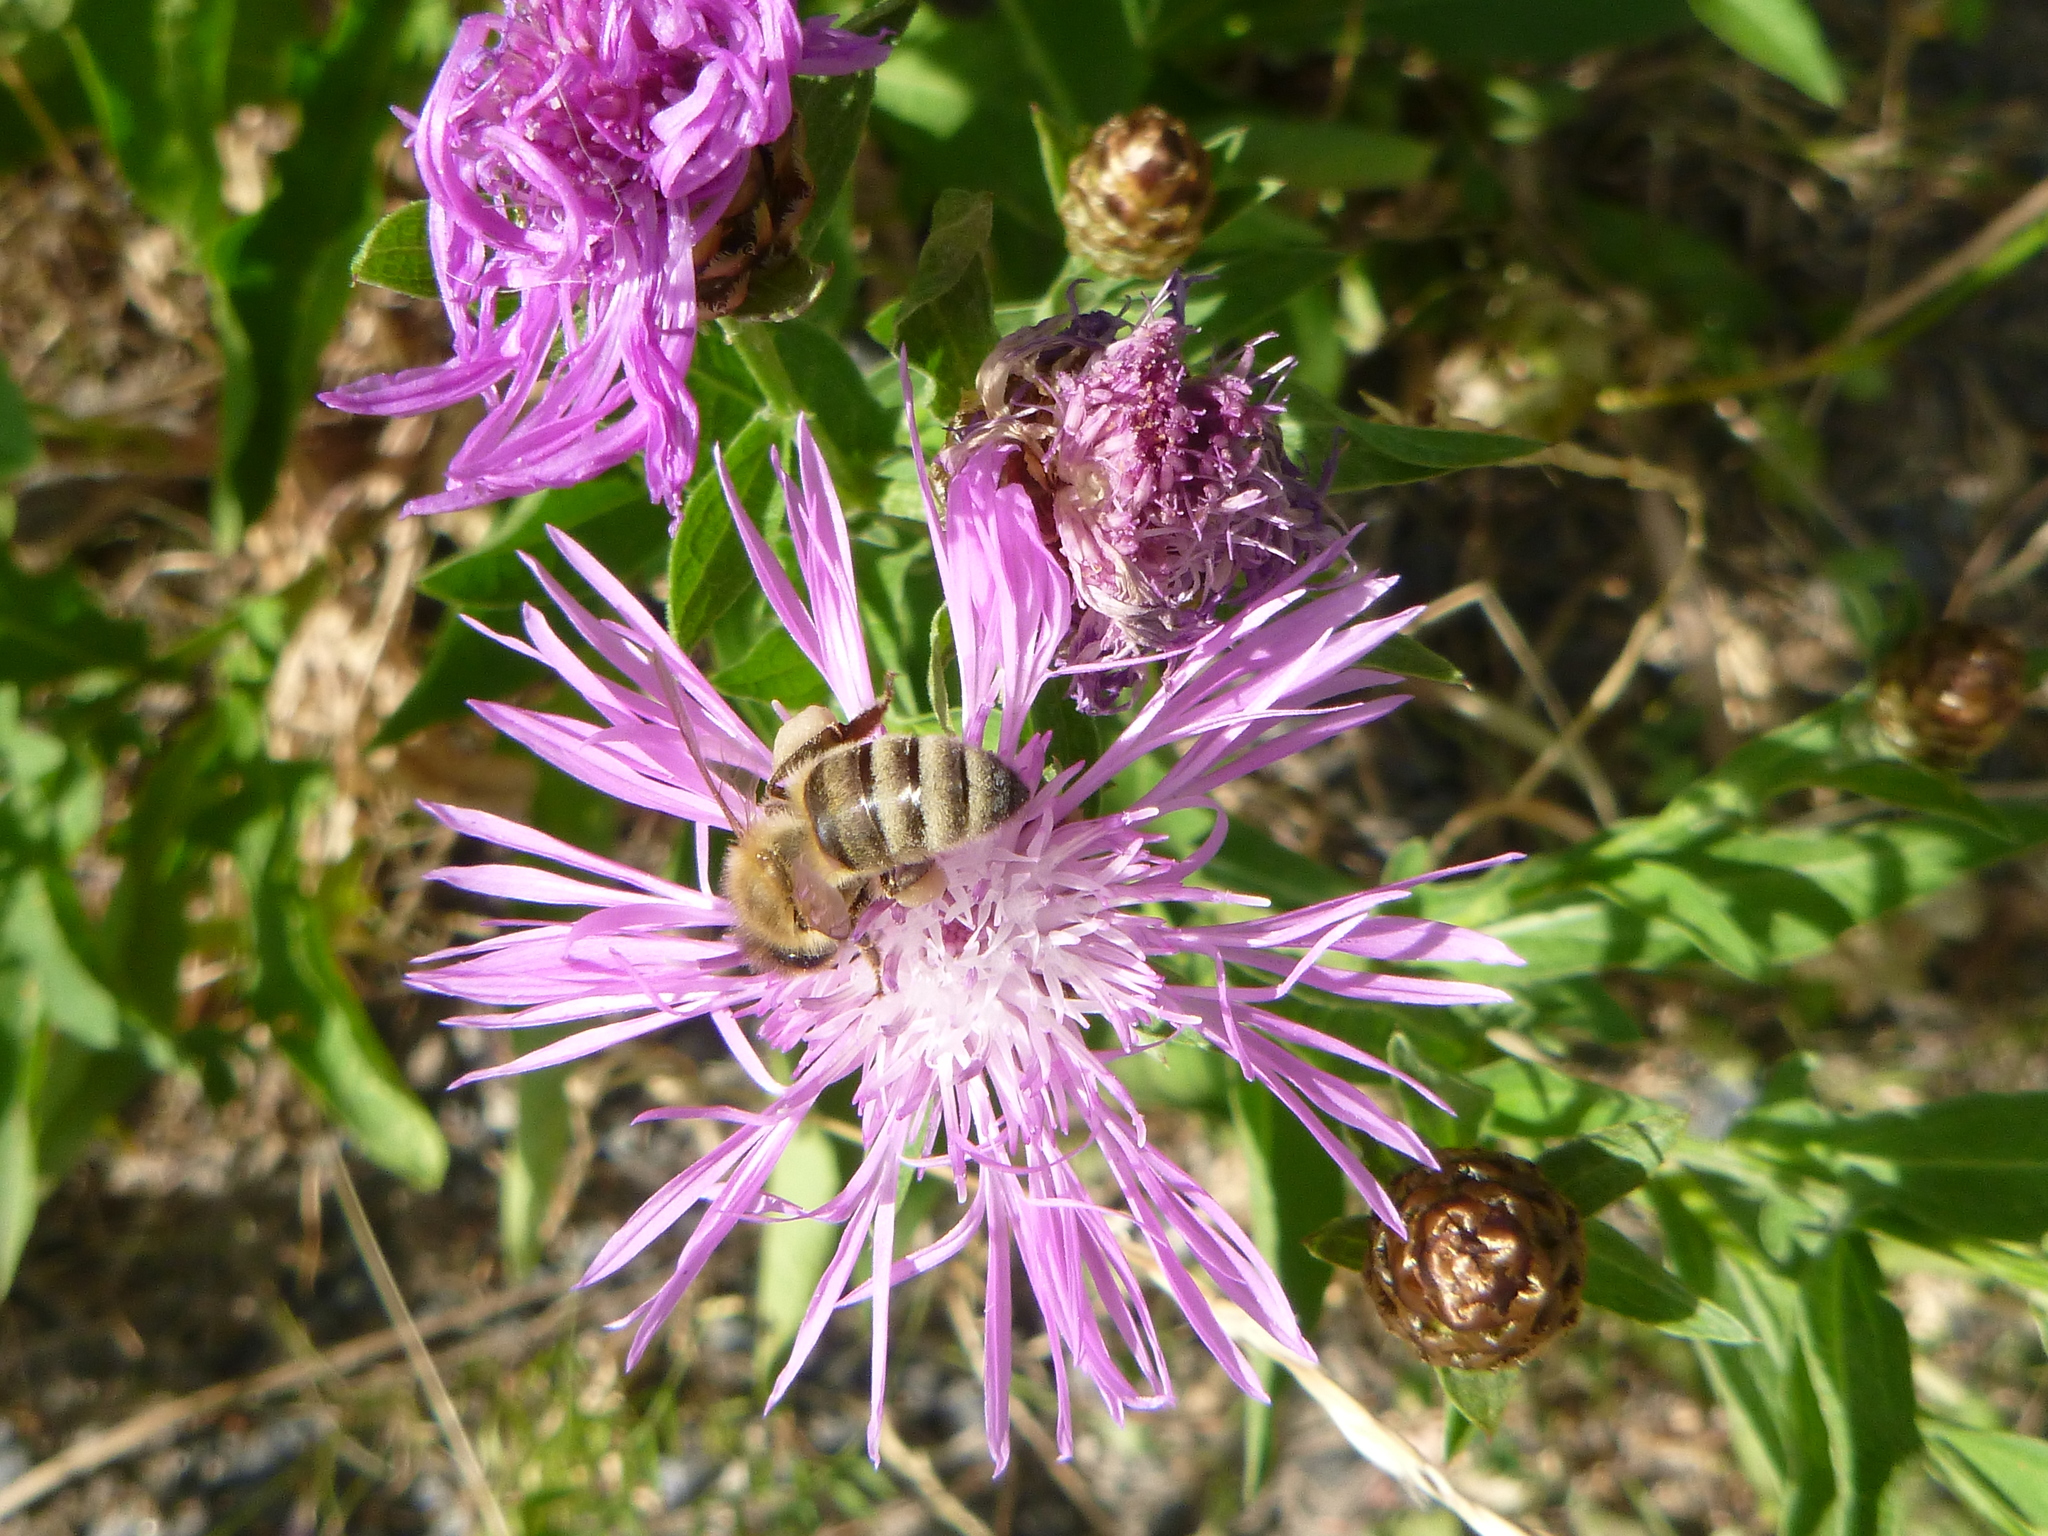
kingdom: Animalia
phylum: Arthropoda
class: Insecta
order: Hymenoptera
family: Apidae
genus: Apis
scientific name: Apis mellifera
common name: Honey bee
